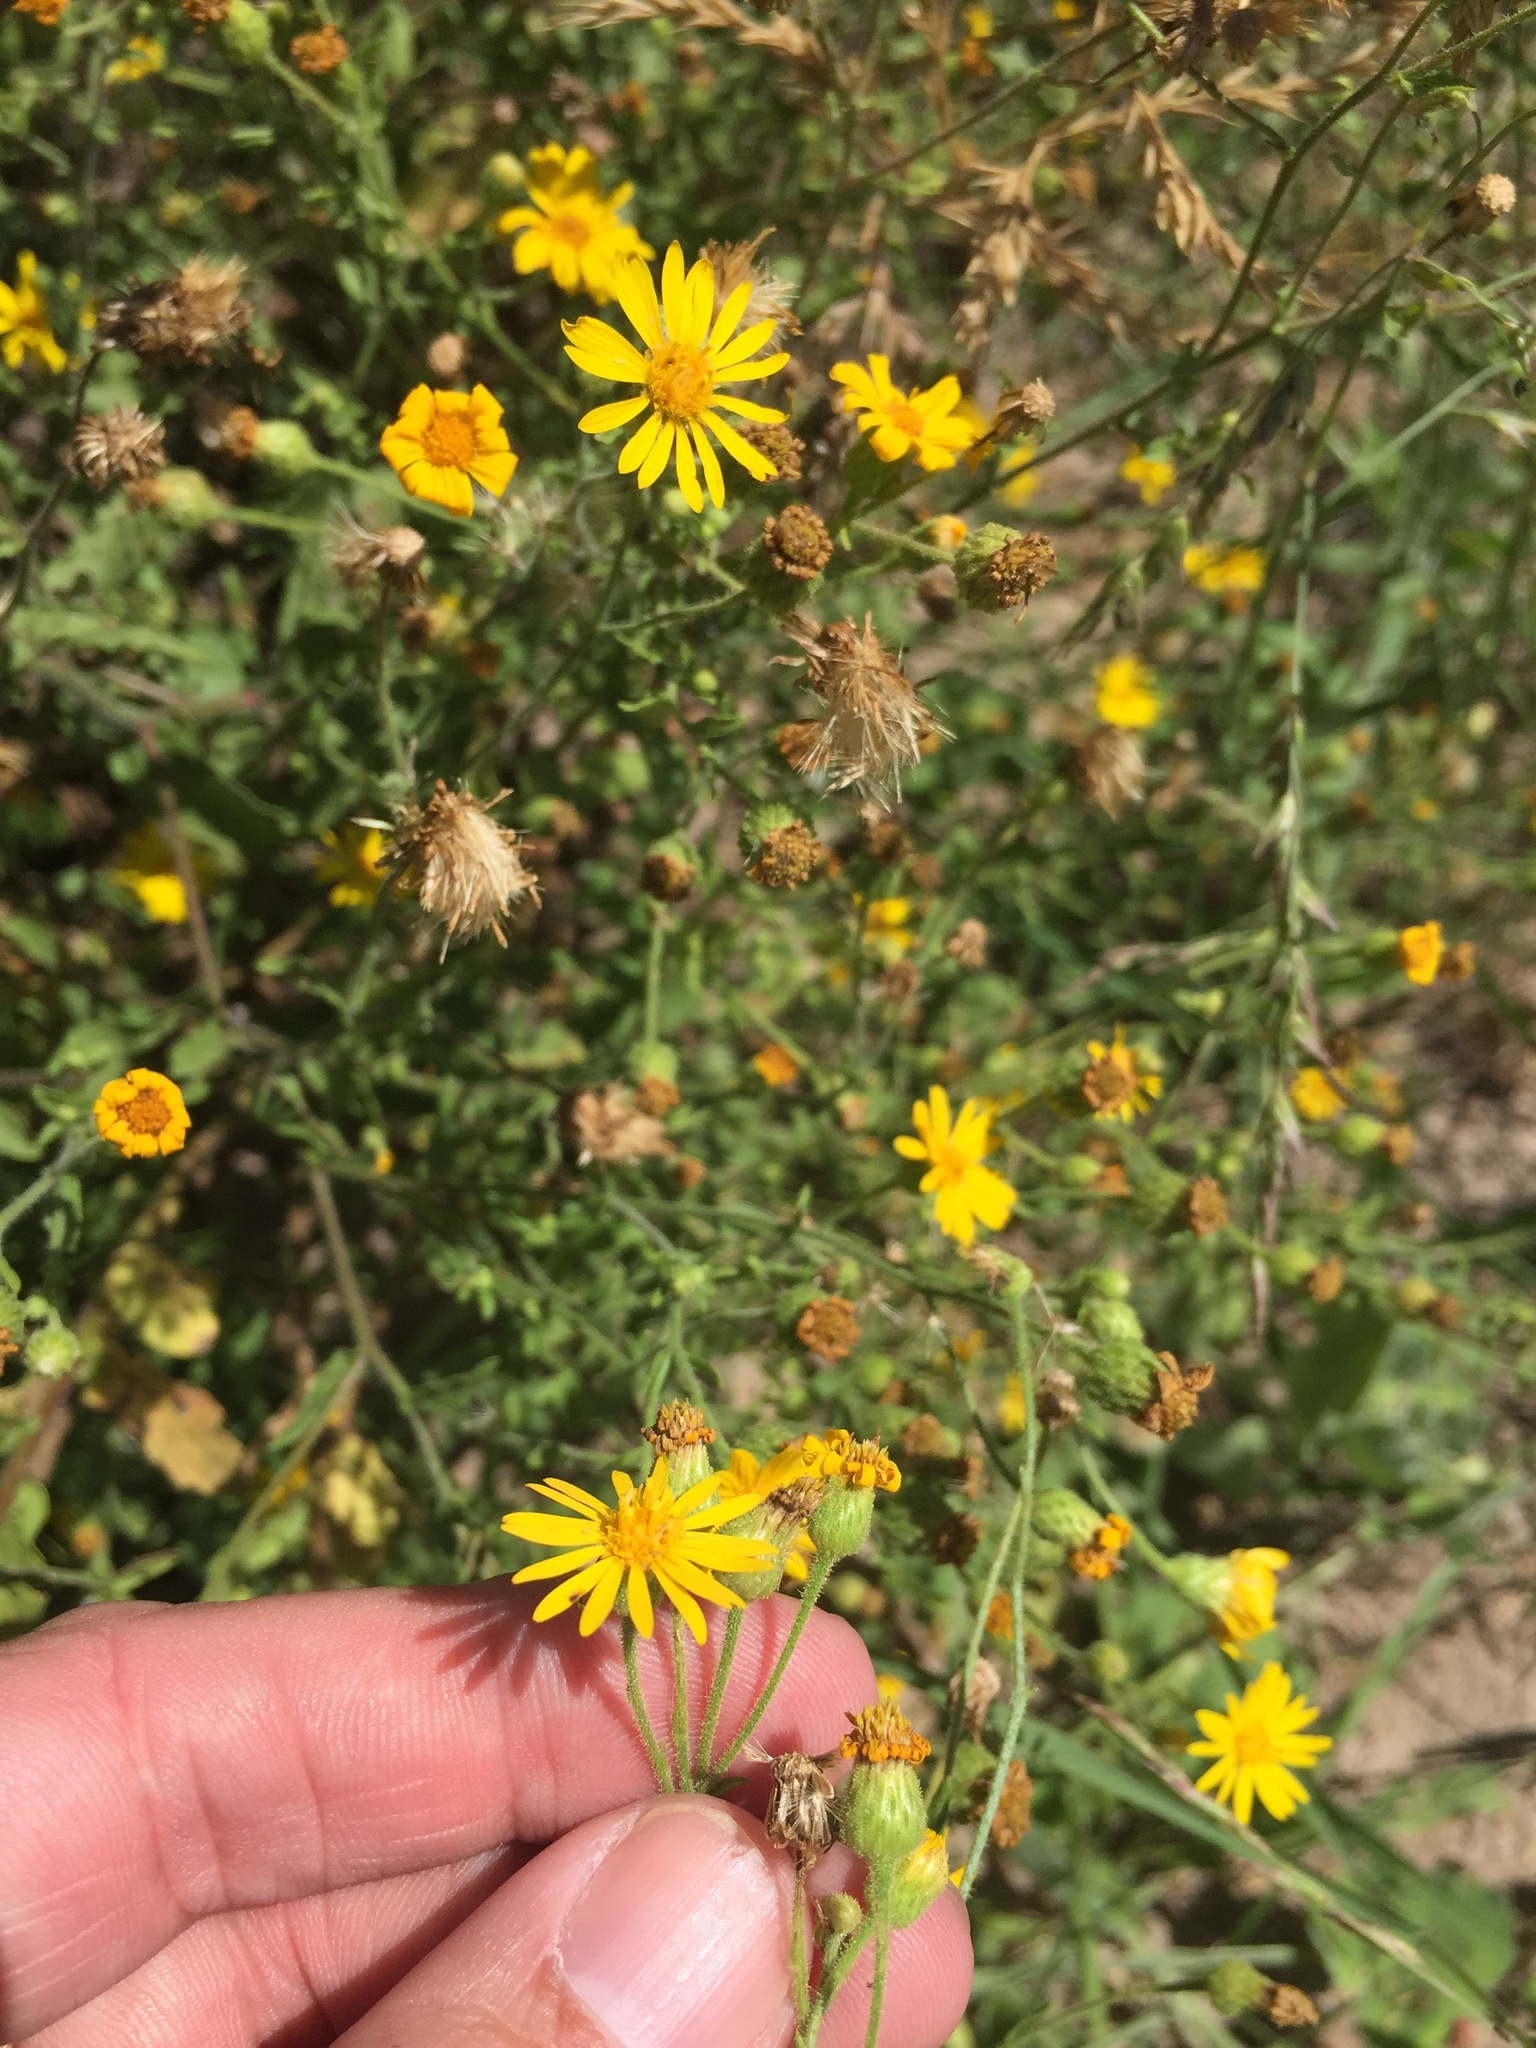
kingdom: Plantae
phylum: Tracheophyta
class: Magnoliopsida
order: Asterales
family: Asteraceae
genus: Heterotheca
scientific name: Heterotheca subaxillaris
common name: Camphorweed
